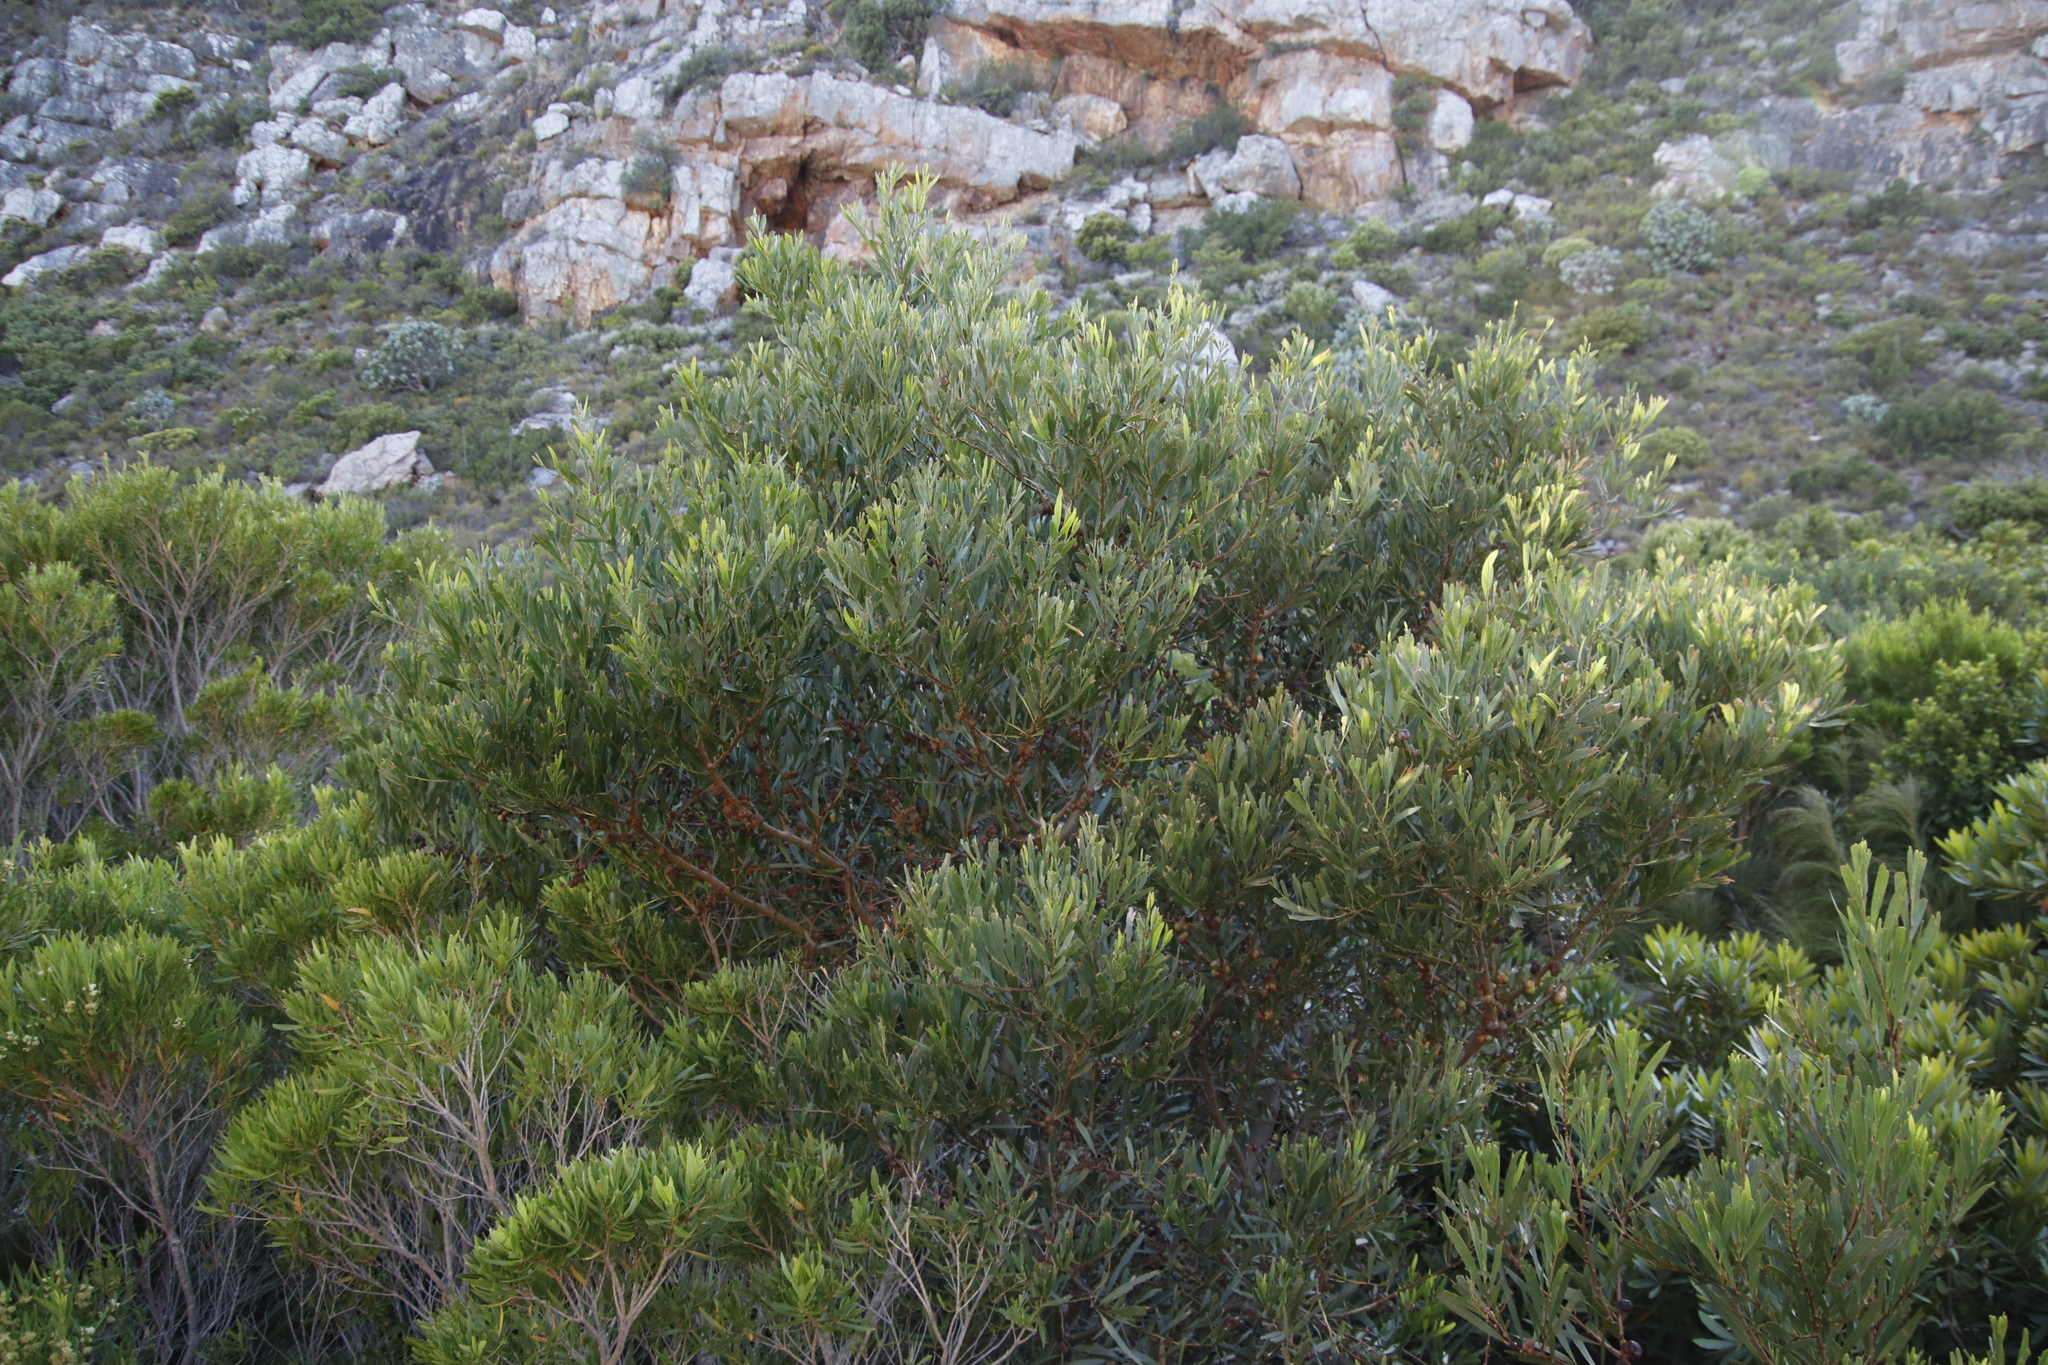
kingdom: Plantae
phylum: Tracheophyta
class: Magnoliopsida
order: Fabales
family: Fabaceae
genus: Acacia
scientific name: Acacia longifolia
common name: Sydney golden wattle
